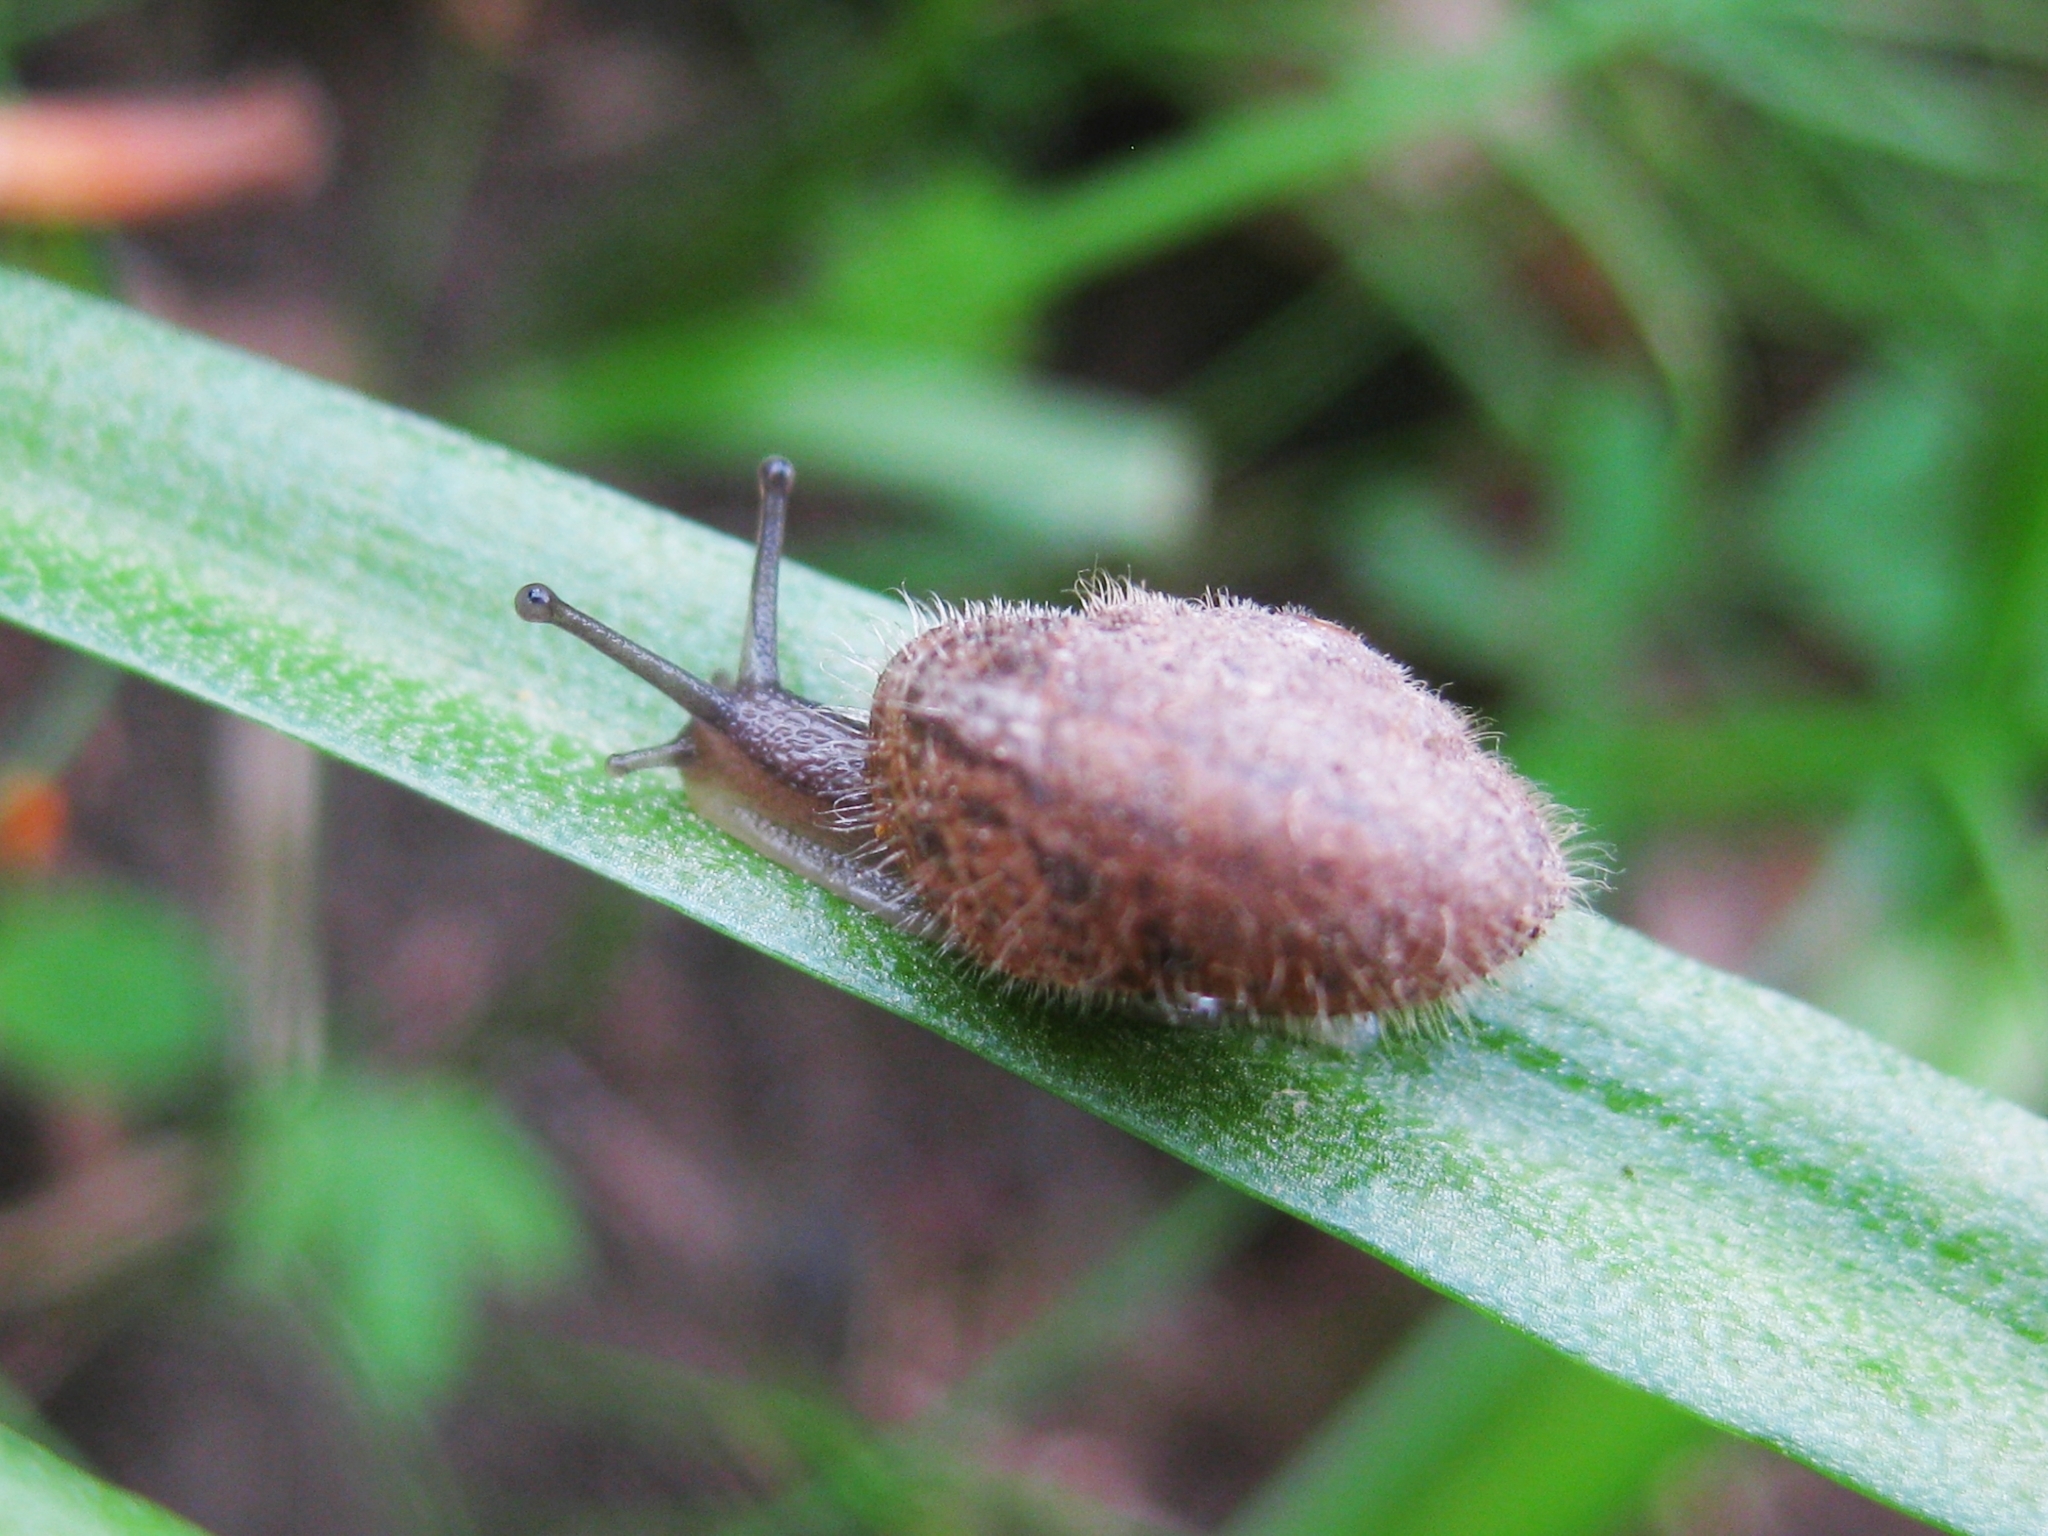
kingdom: Animalia
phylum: Mollusca
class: Gastropoda
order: Stylommatophora
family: Hygromiidae
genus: Euomphalia
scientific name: Euomphalia aristata
